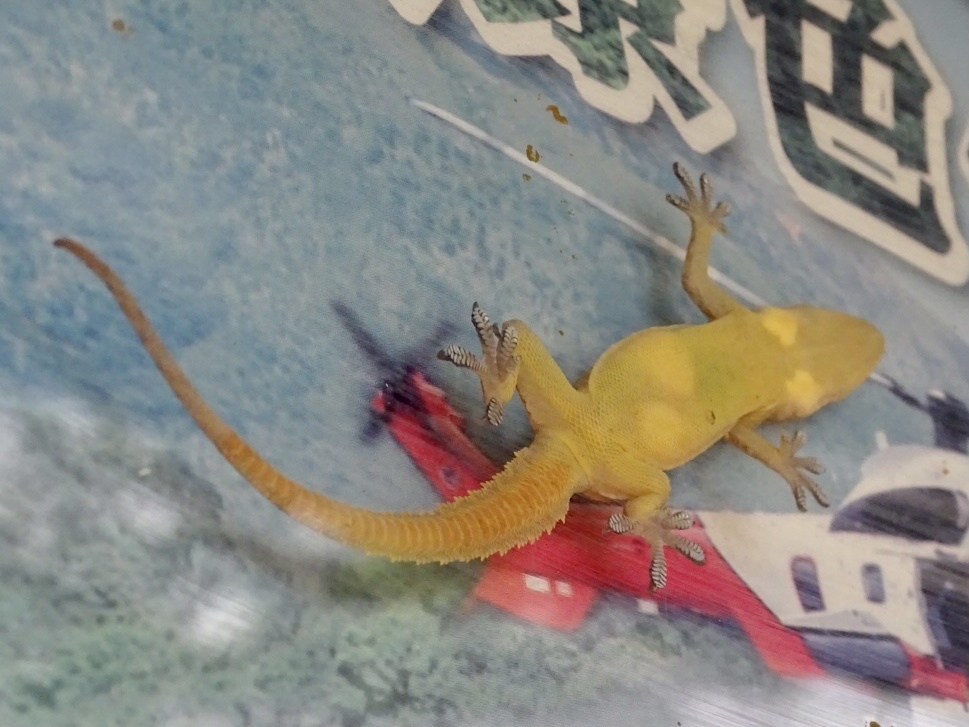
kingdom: Animalia
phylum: Chordata
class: Squamata
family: Gekkonidae
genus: Hemidactylus
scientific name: Hemidactylus garnotii
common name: Indo-pacific gecko
